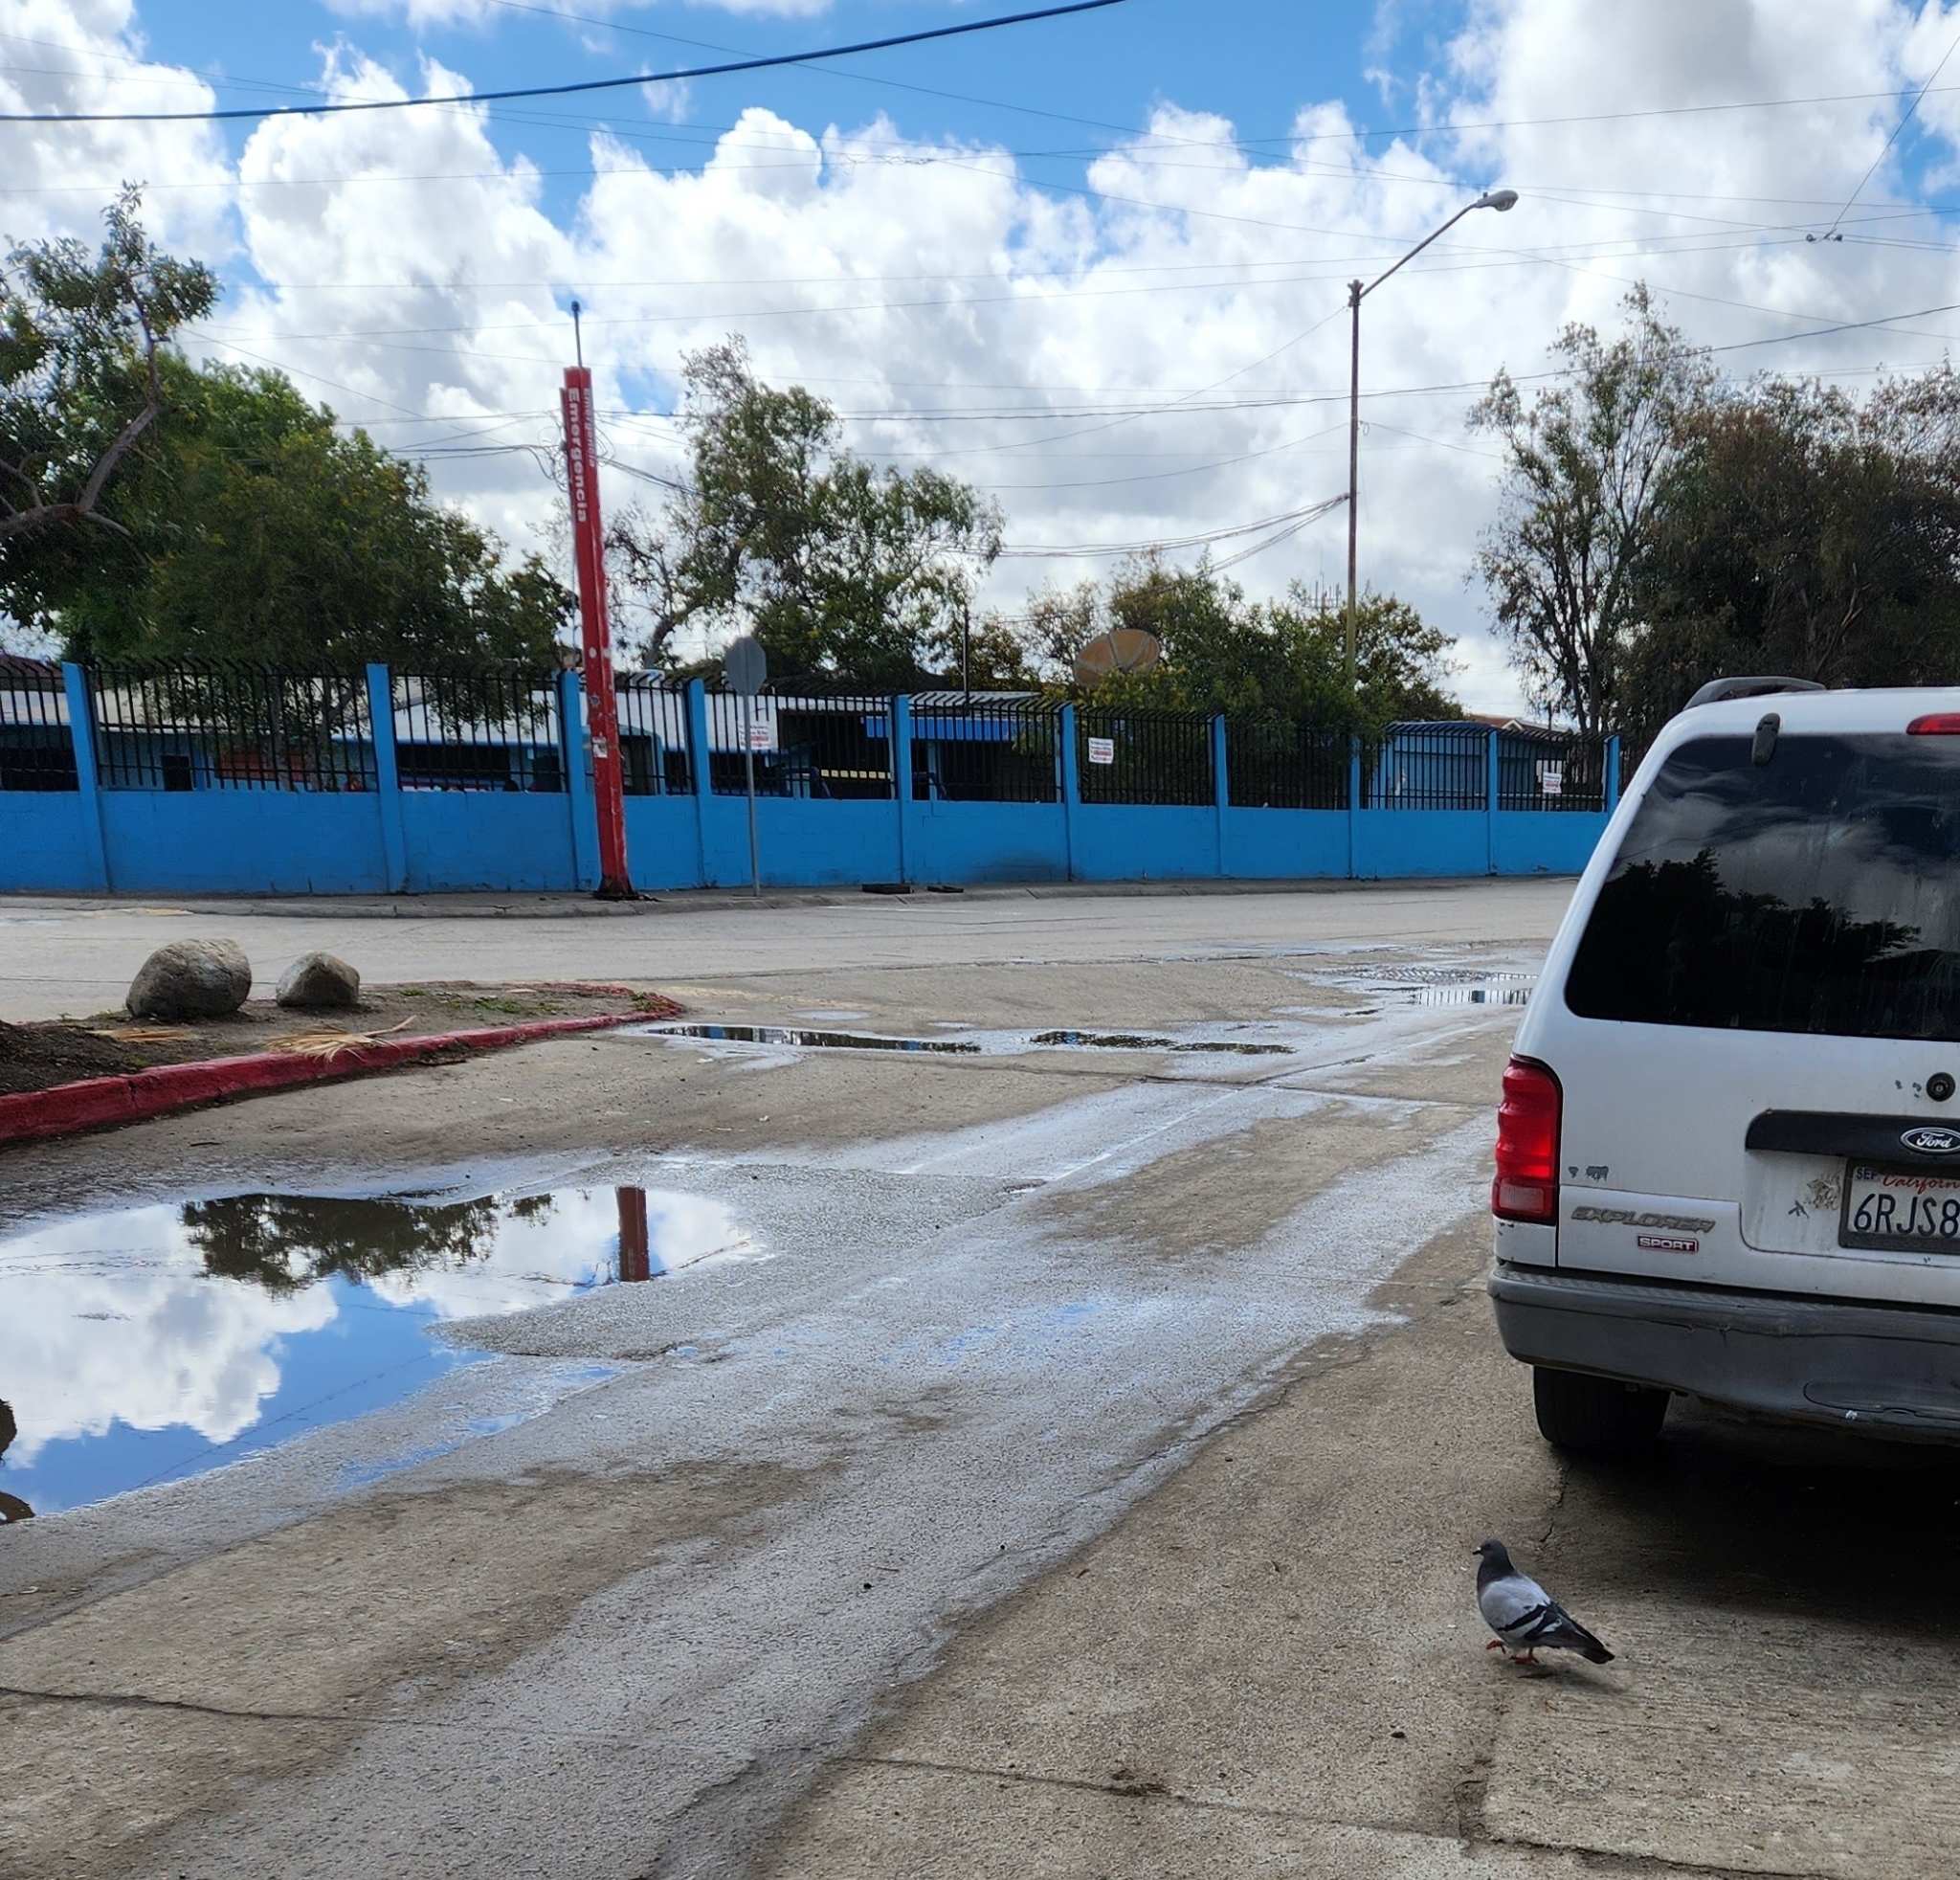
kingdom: Animalia
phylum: Chordata
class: Aves
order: Columbiformes
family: Columbidae
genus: Columba
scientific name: Columba livia
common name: Rock pigeon
